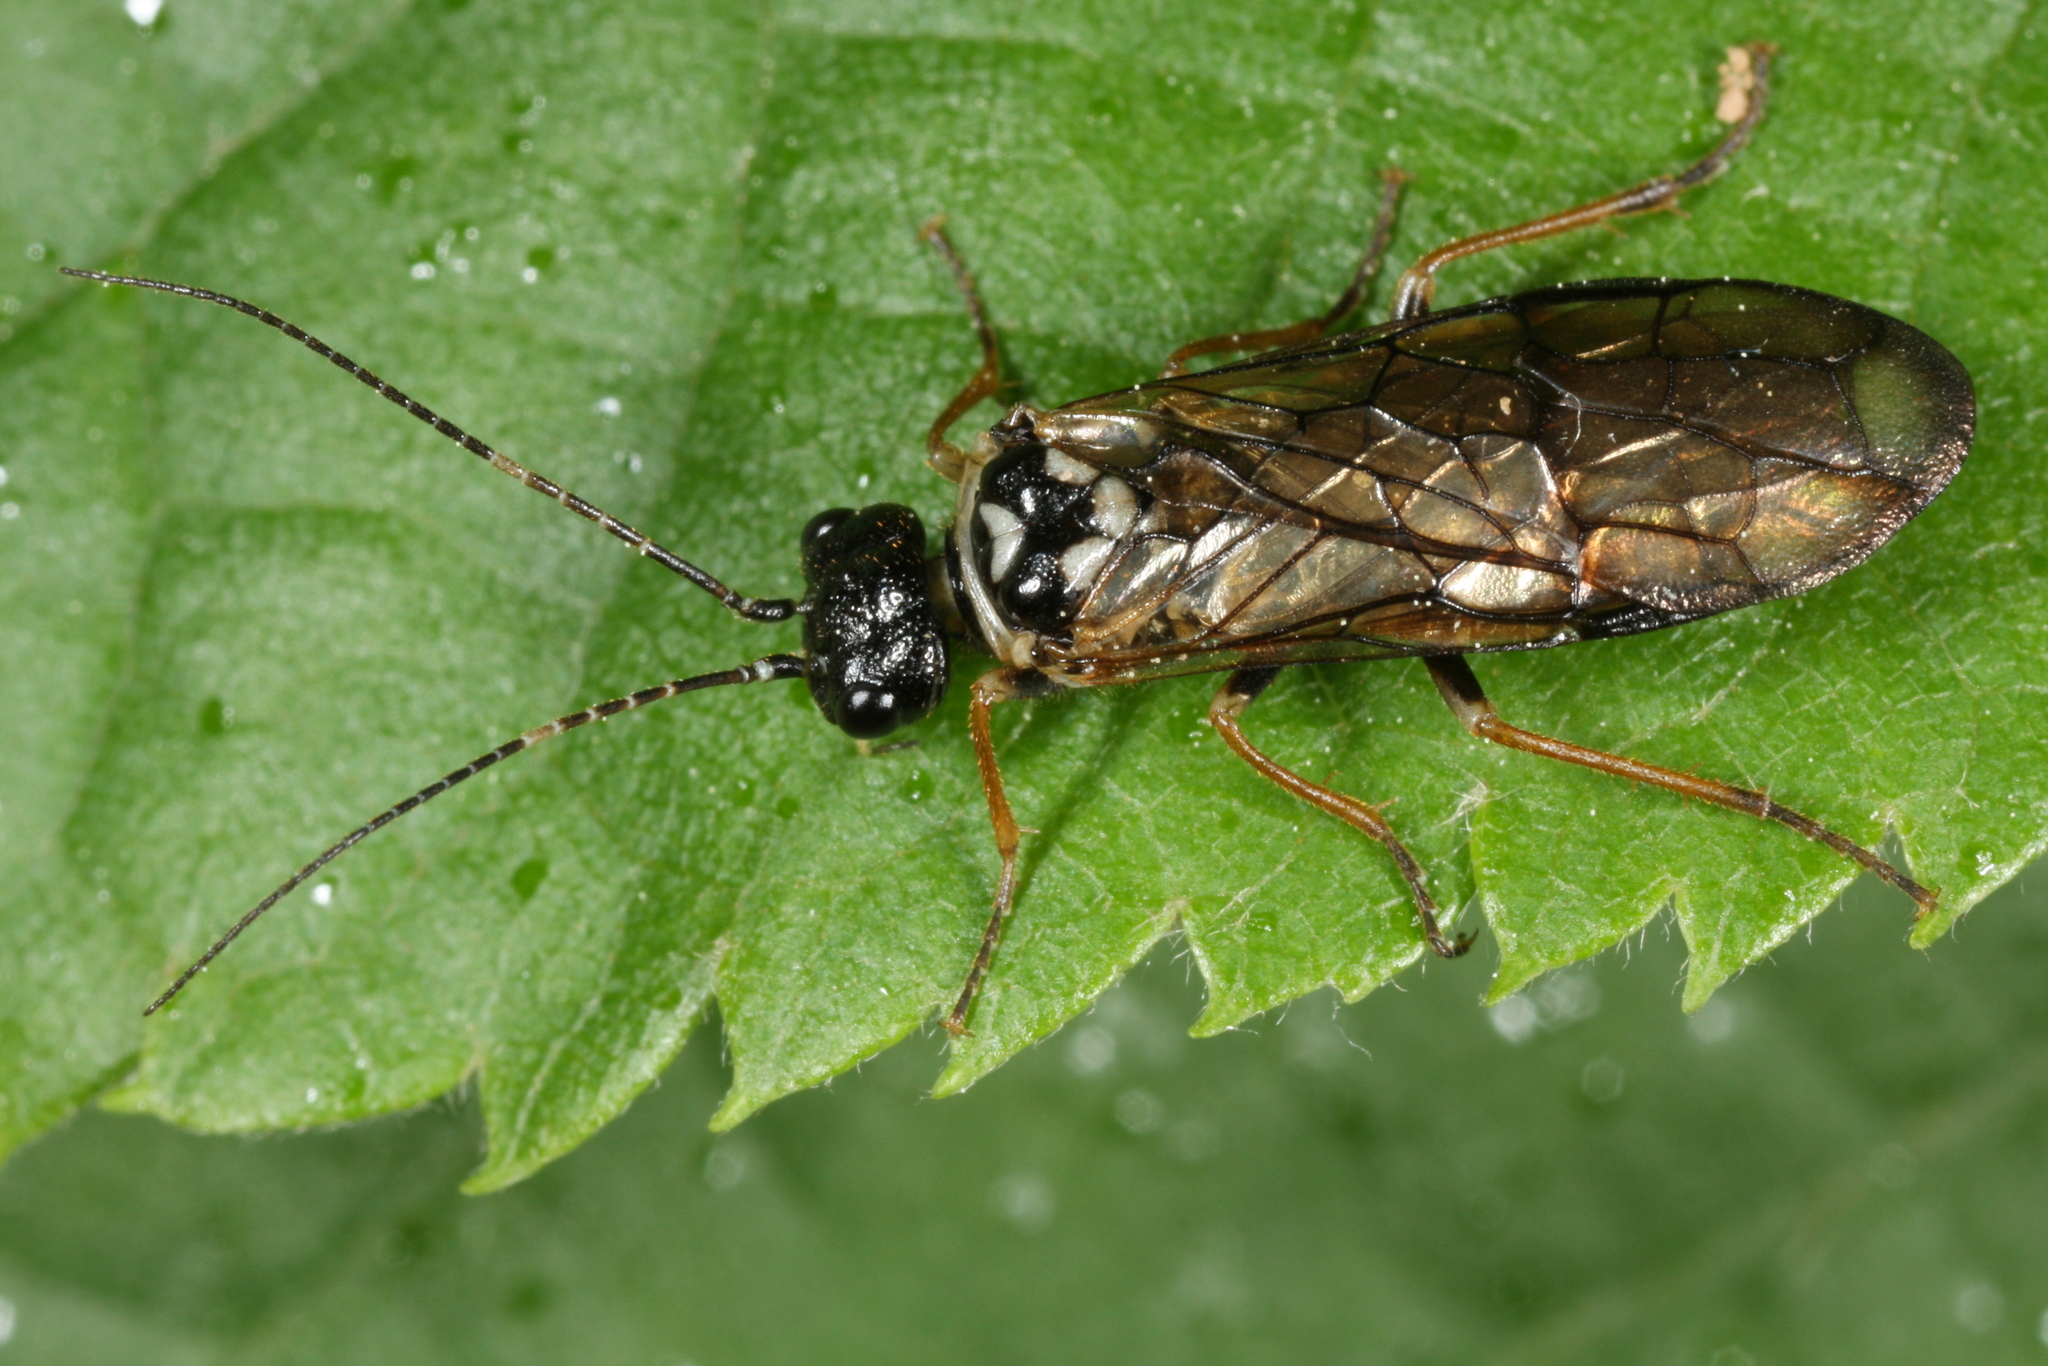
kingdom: Animalia
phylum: Arthropoda
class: Insecta
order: Hymenoptera
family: Pamphiliidae
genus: Cephalcia
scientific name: Cephalcia alpina
